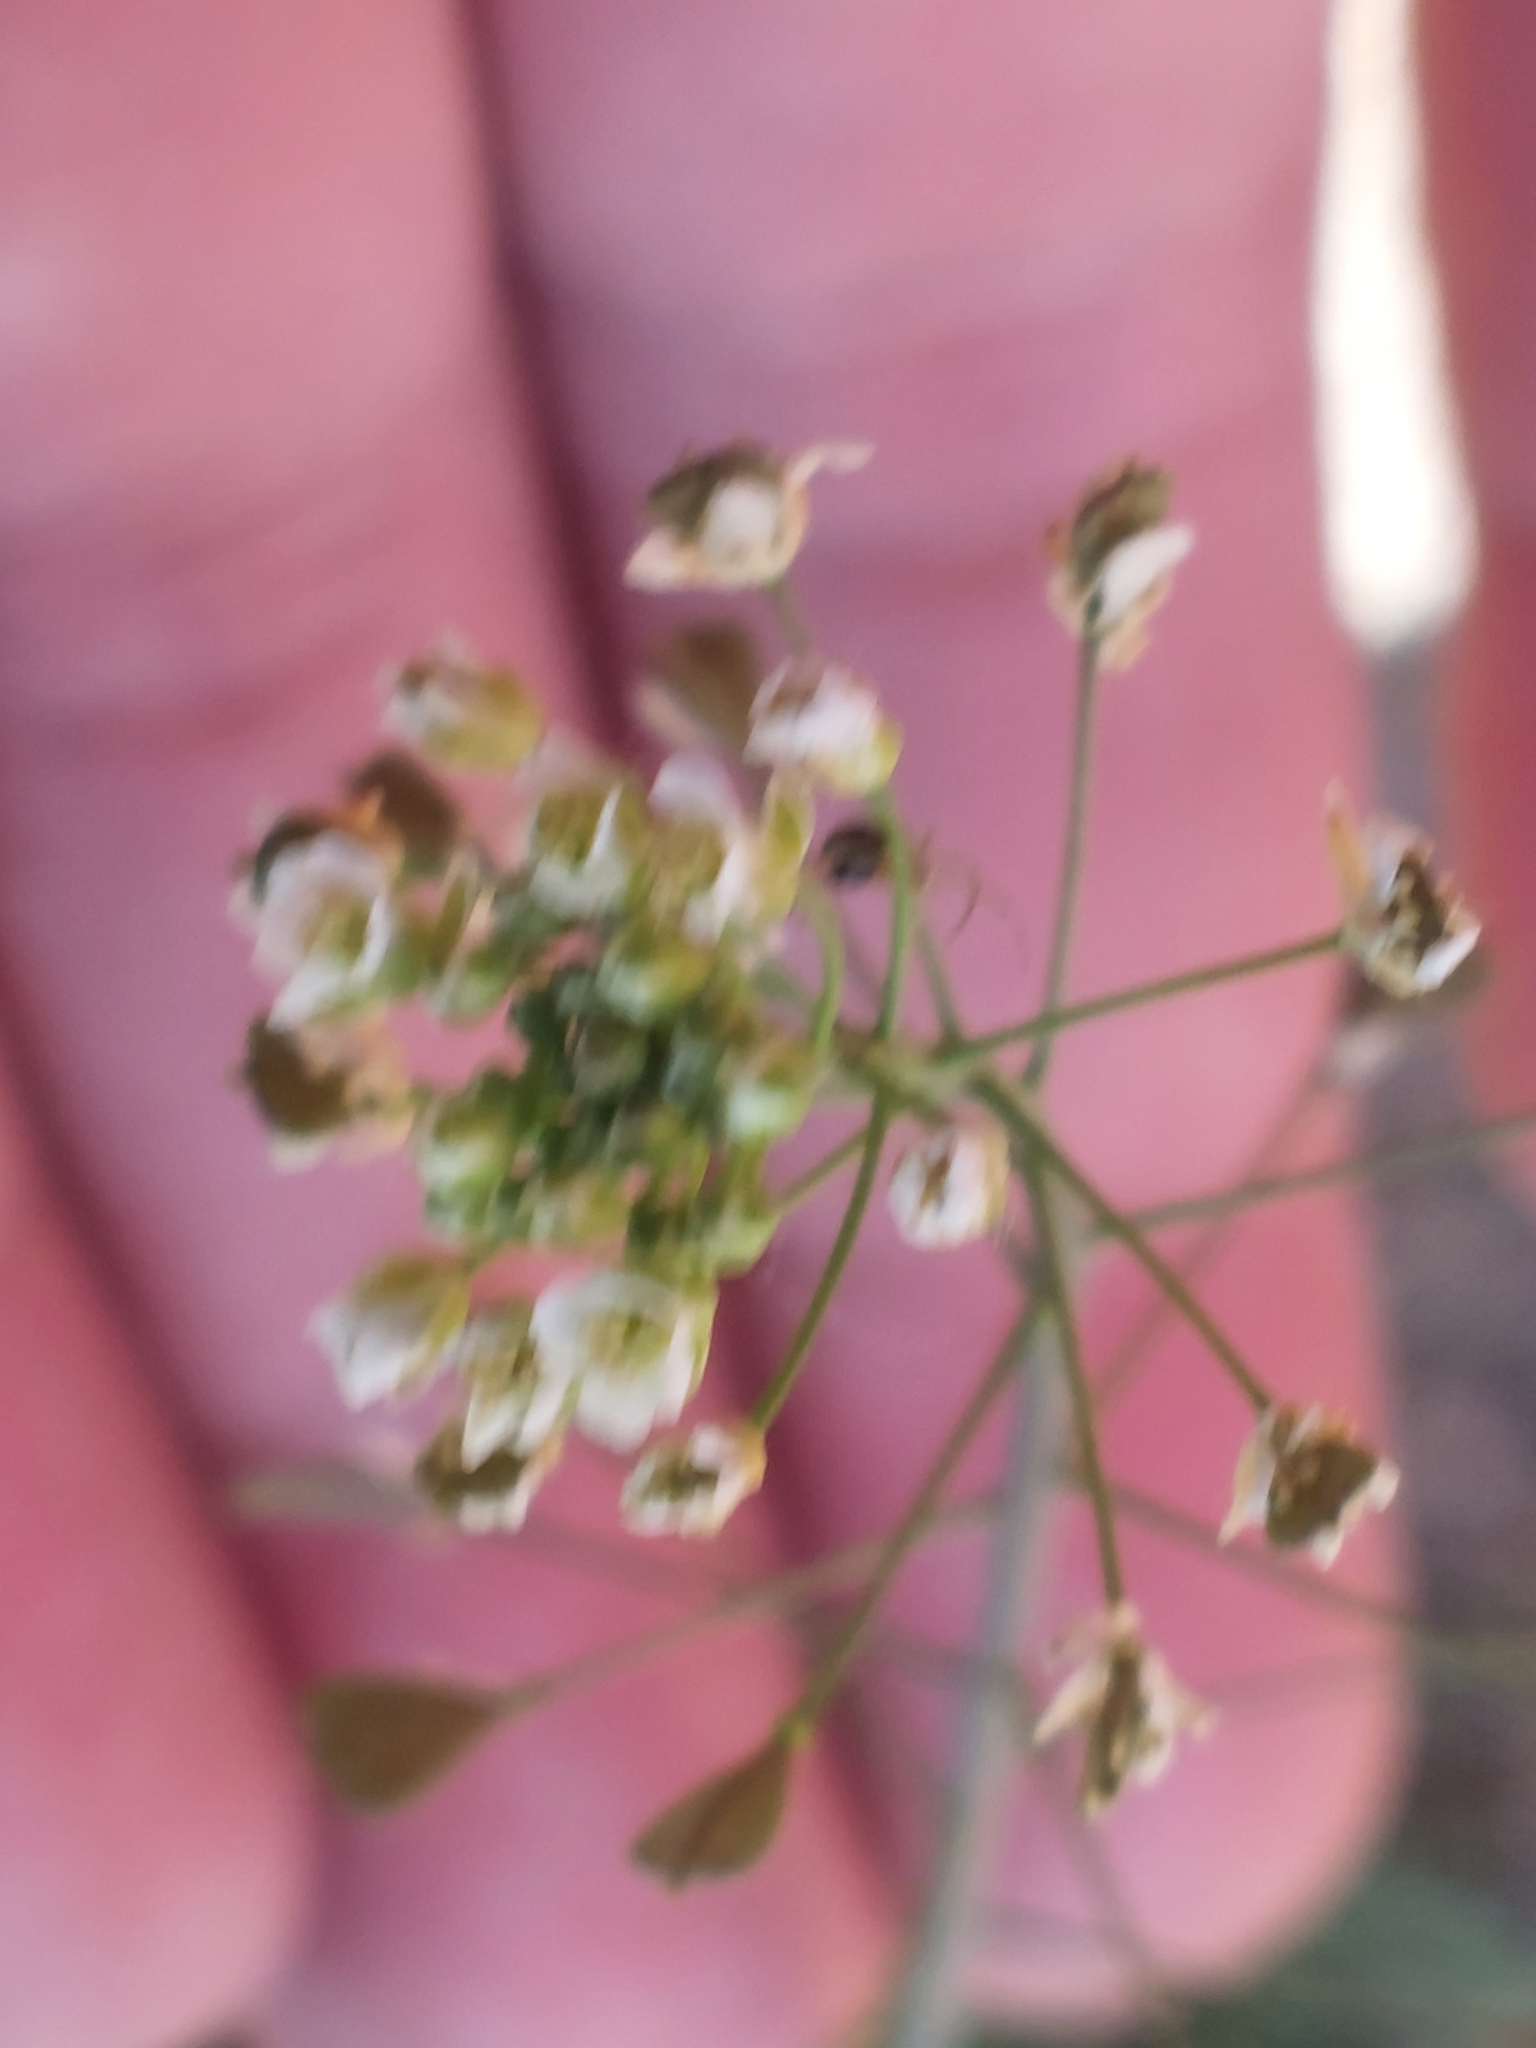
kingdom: Plantae
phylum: Tracheophyta
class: Magnoliopsida
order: Brassicales
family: Brassicaceae
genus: Capsella
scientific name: Capsella bursa-pastoris
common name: Shepherd's purse
